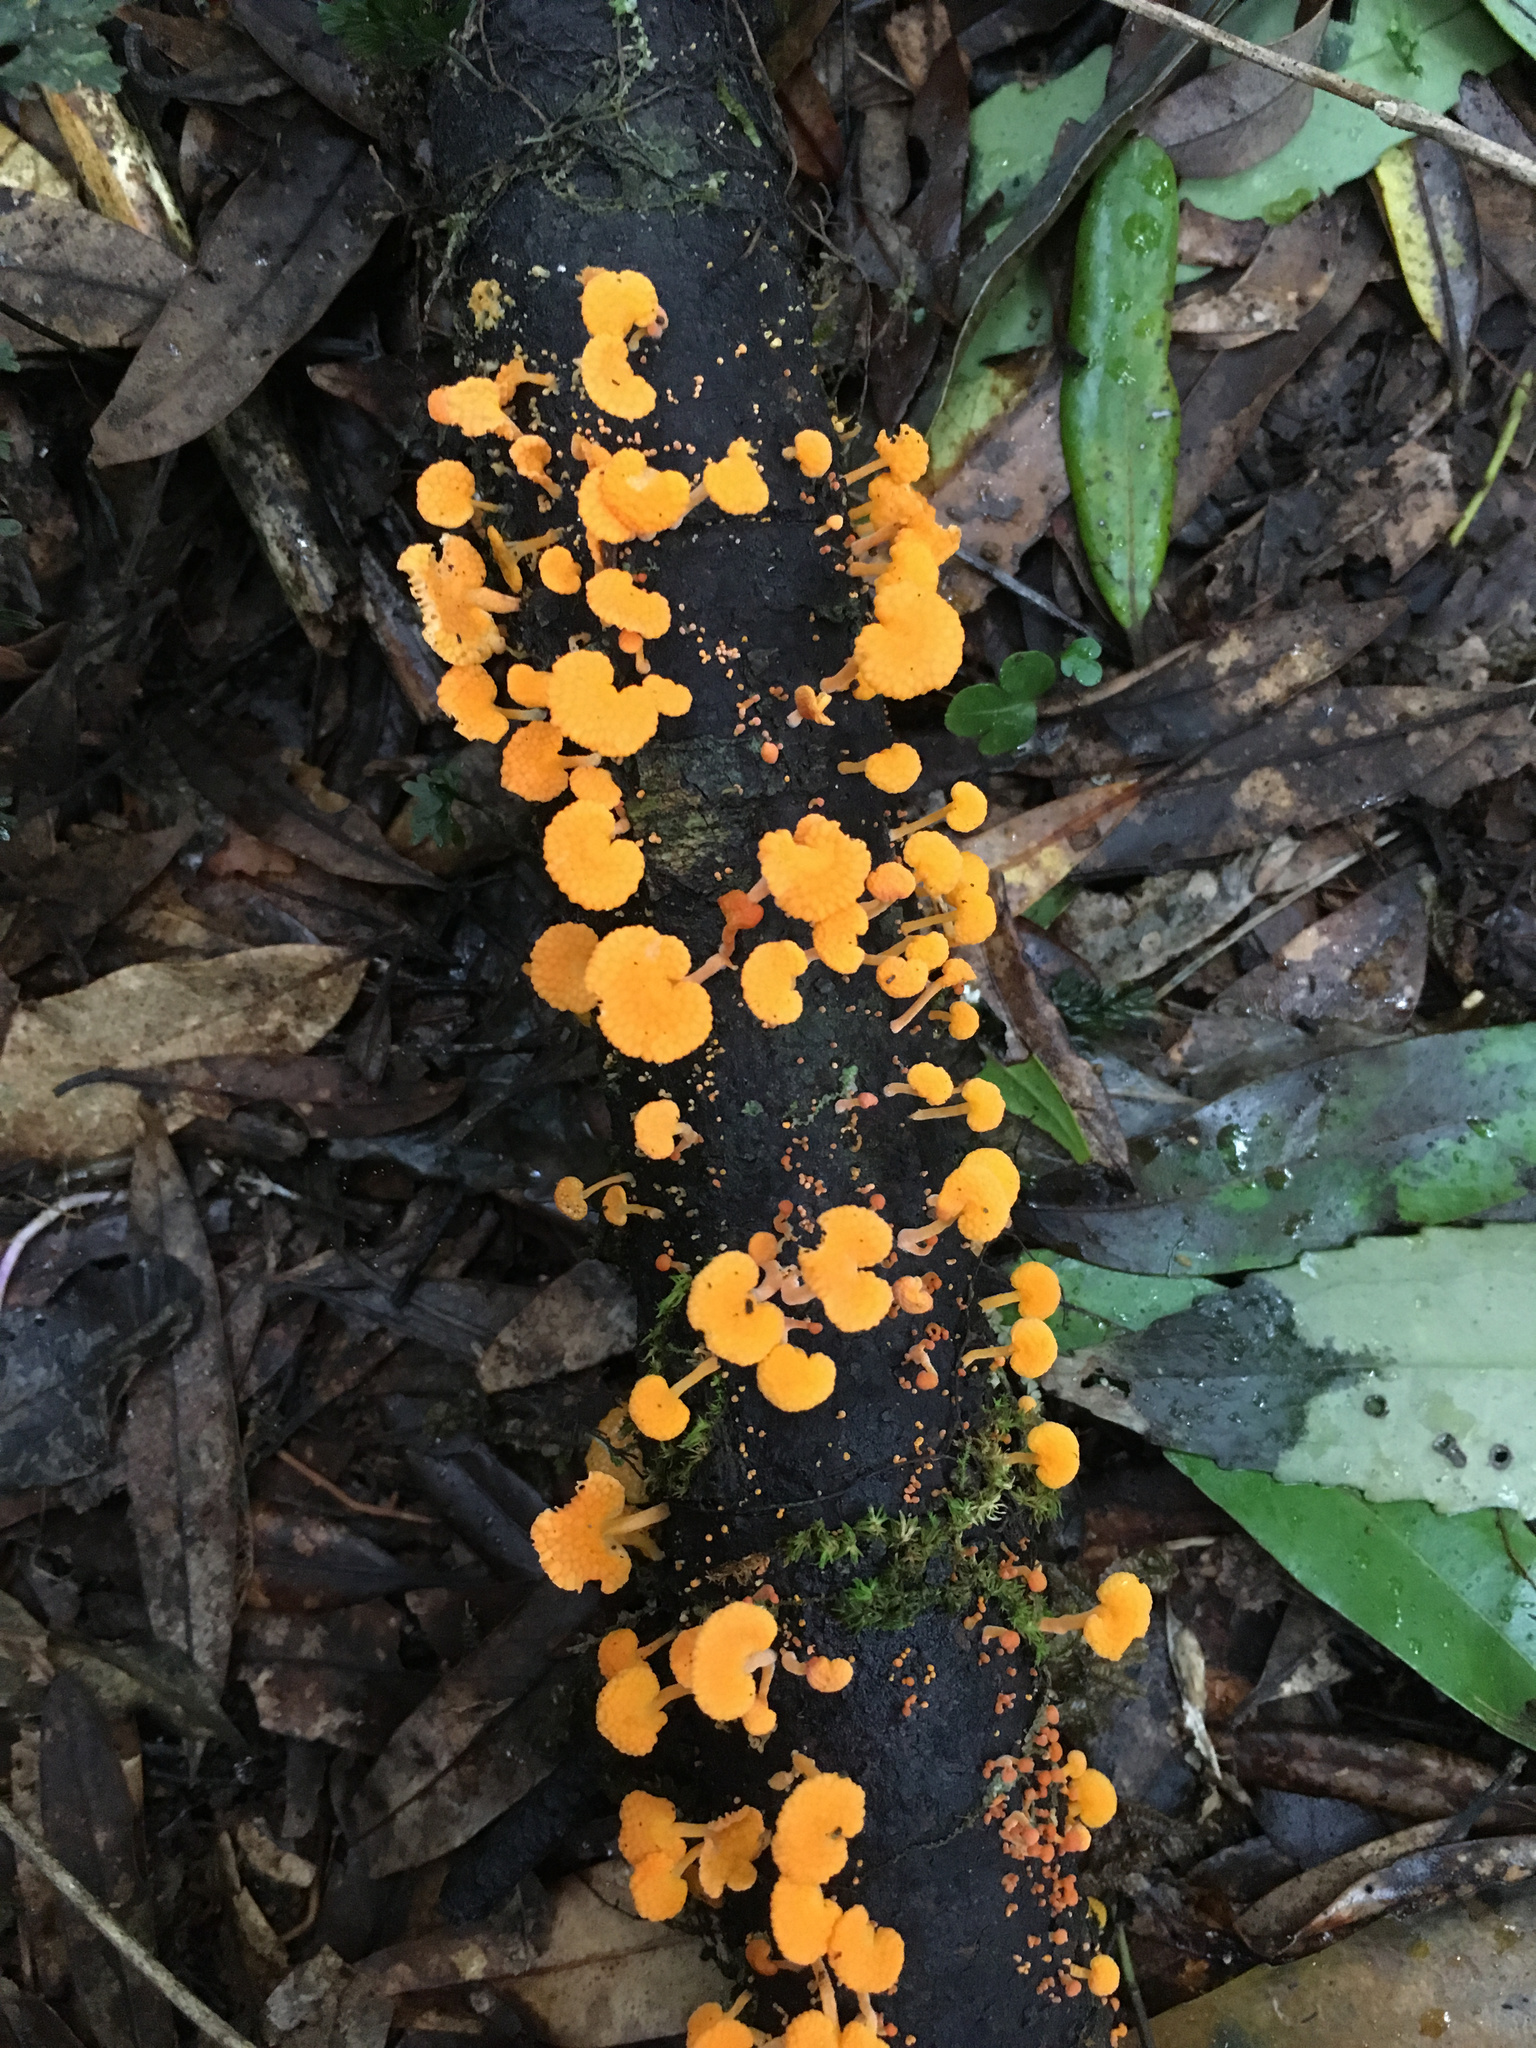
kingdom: Fungi
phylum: Basidiomycota
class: Agaricomycetes
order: Agaricales
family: Mycenaceae
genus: Favolaschia
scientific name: Favolaschia claudopus
